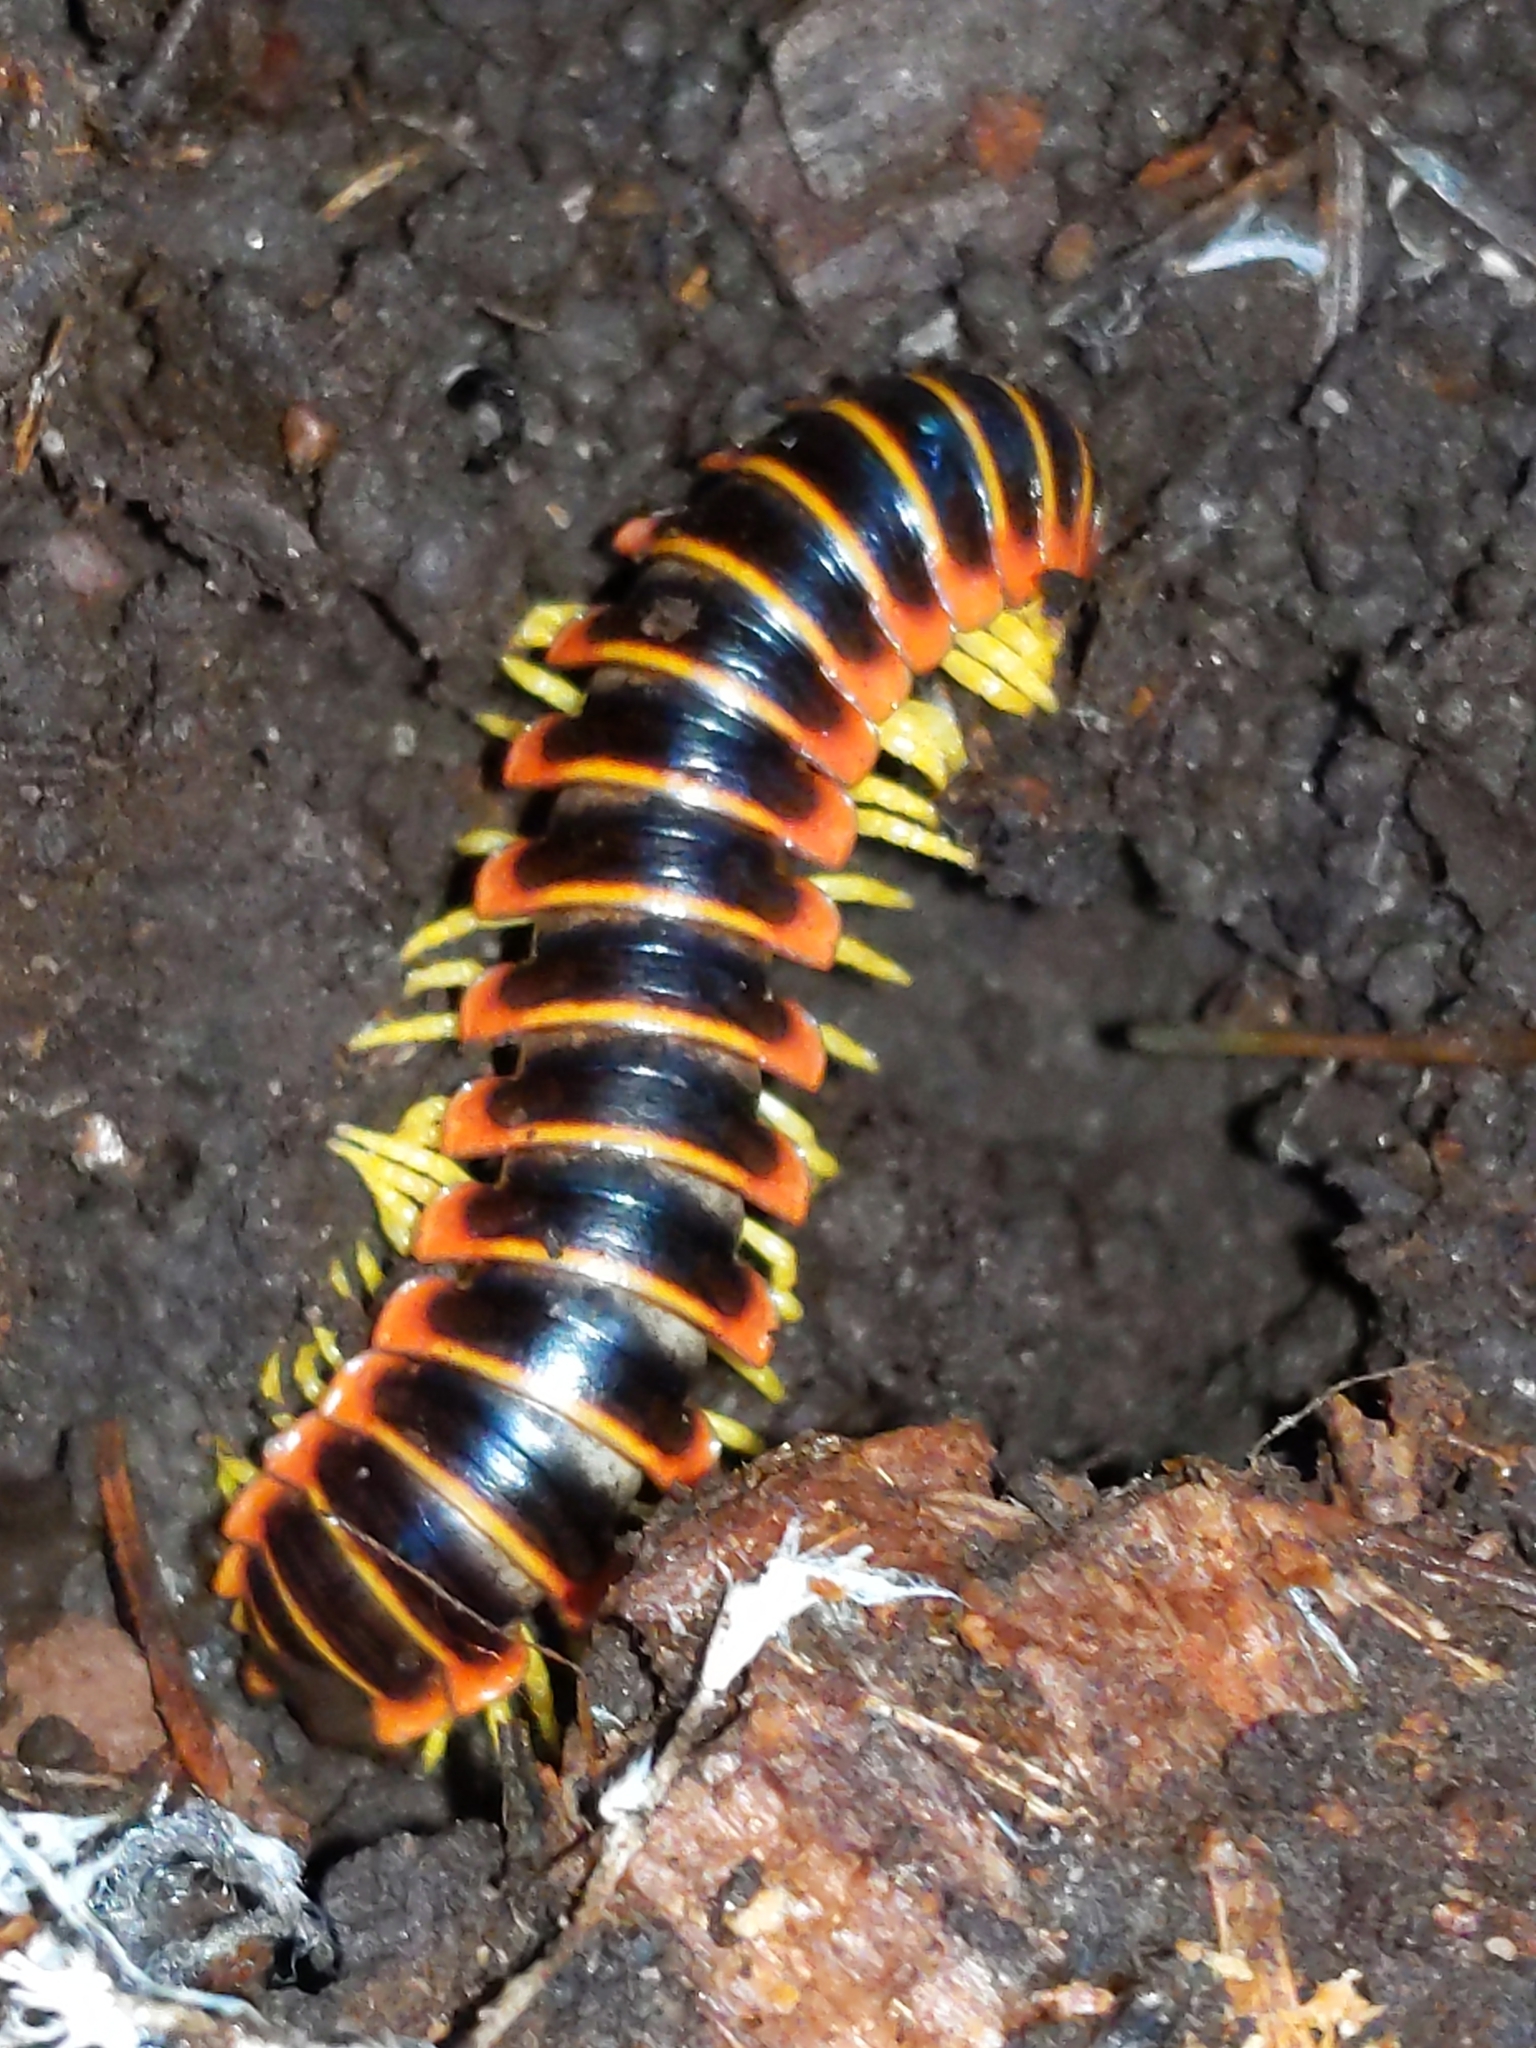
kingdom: Animalia
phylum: Arthropoda
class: Diplopoda
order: Polydesmida
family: Xystodesmidae
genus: Apheloria
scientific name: Apheloria virginiensis
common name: Black-and-gold flat millipede
